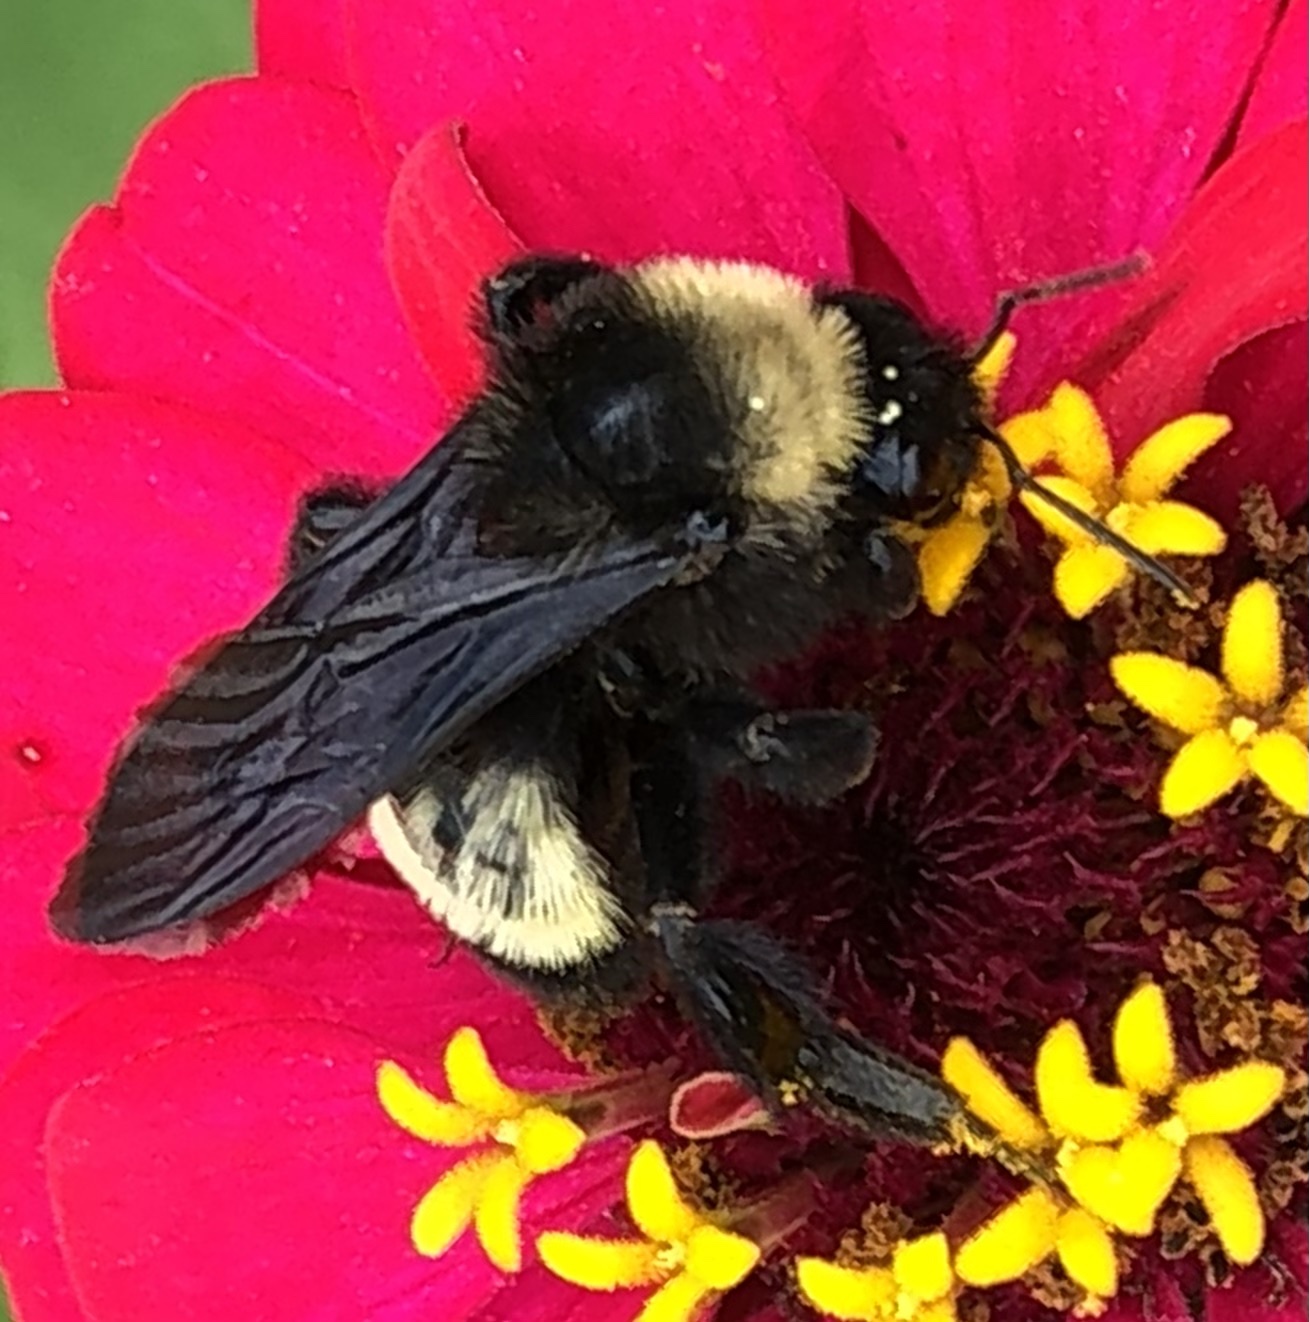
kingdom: Animalia
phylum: Arthropoda
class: Insecta
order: Hymenoptera
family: Apidae
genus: Bombus
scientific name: Bombus pensylvanicus
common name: Bumble bee
